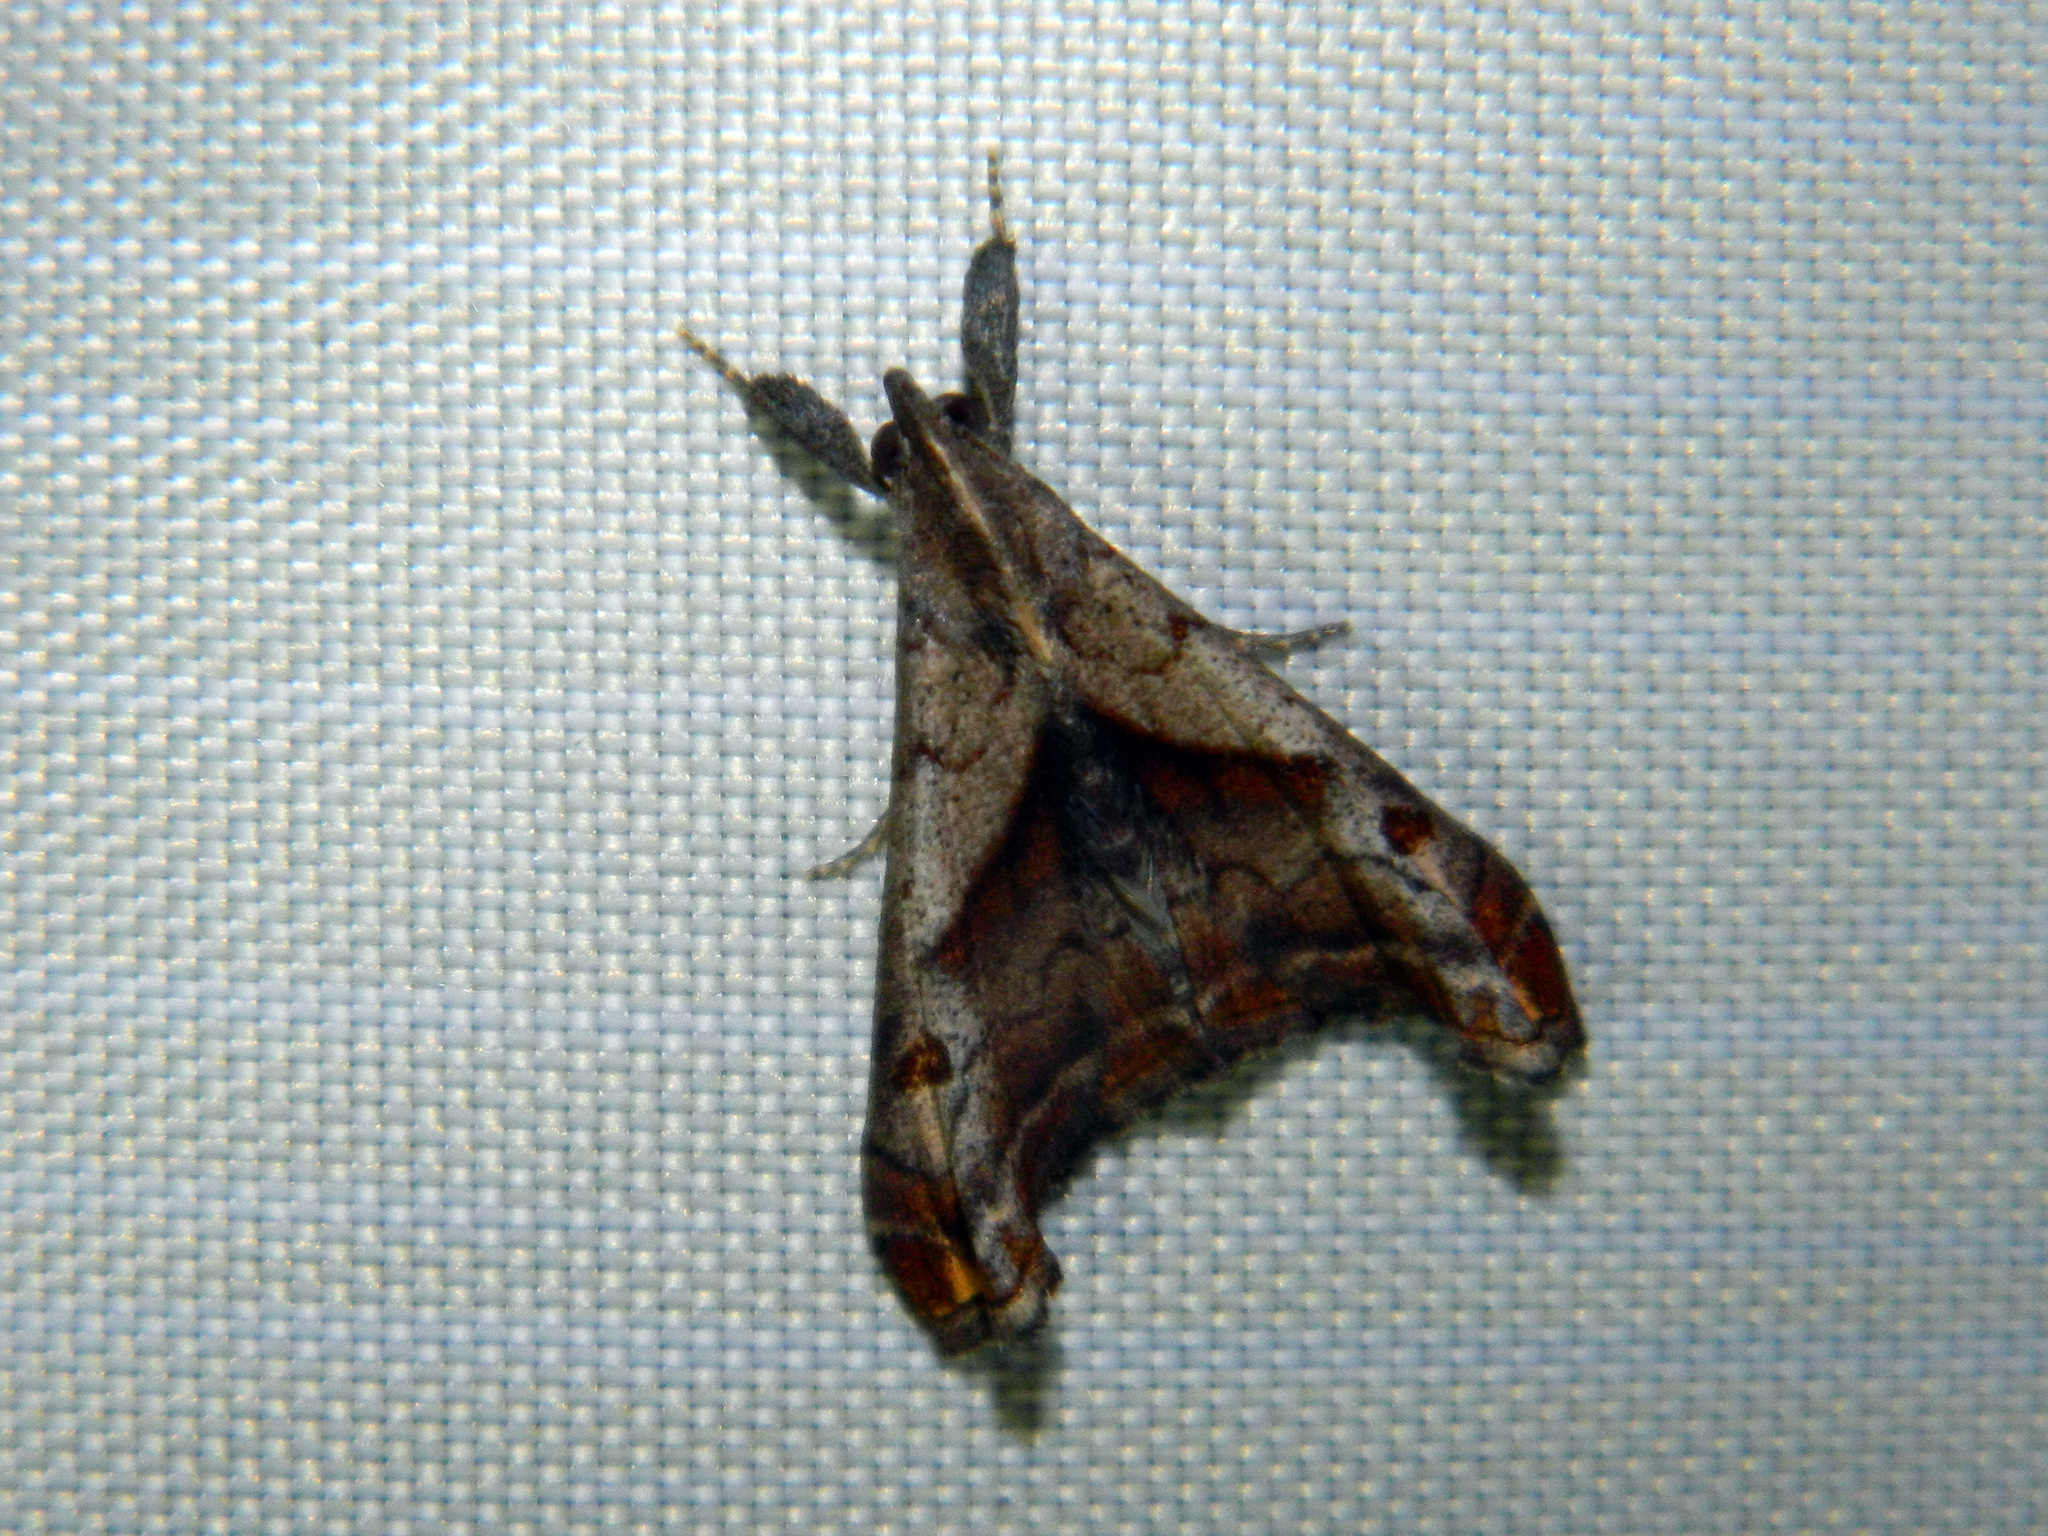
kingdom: Animalia
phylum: Arthropoda
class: Insecta
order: Lepidoptera
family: Erebidae
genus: Palthis
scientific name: Palthis angulalis
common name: Dark-spotted palthis moth
